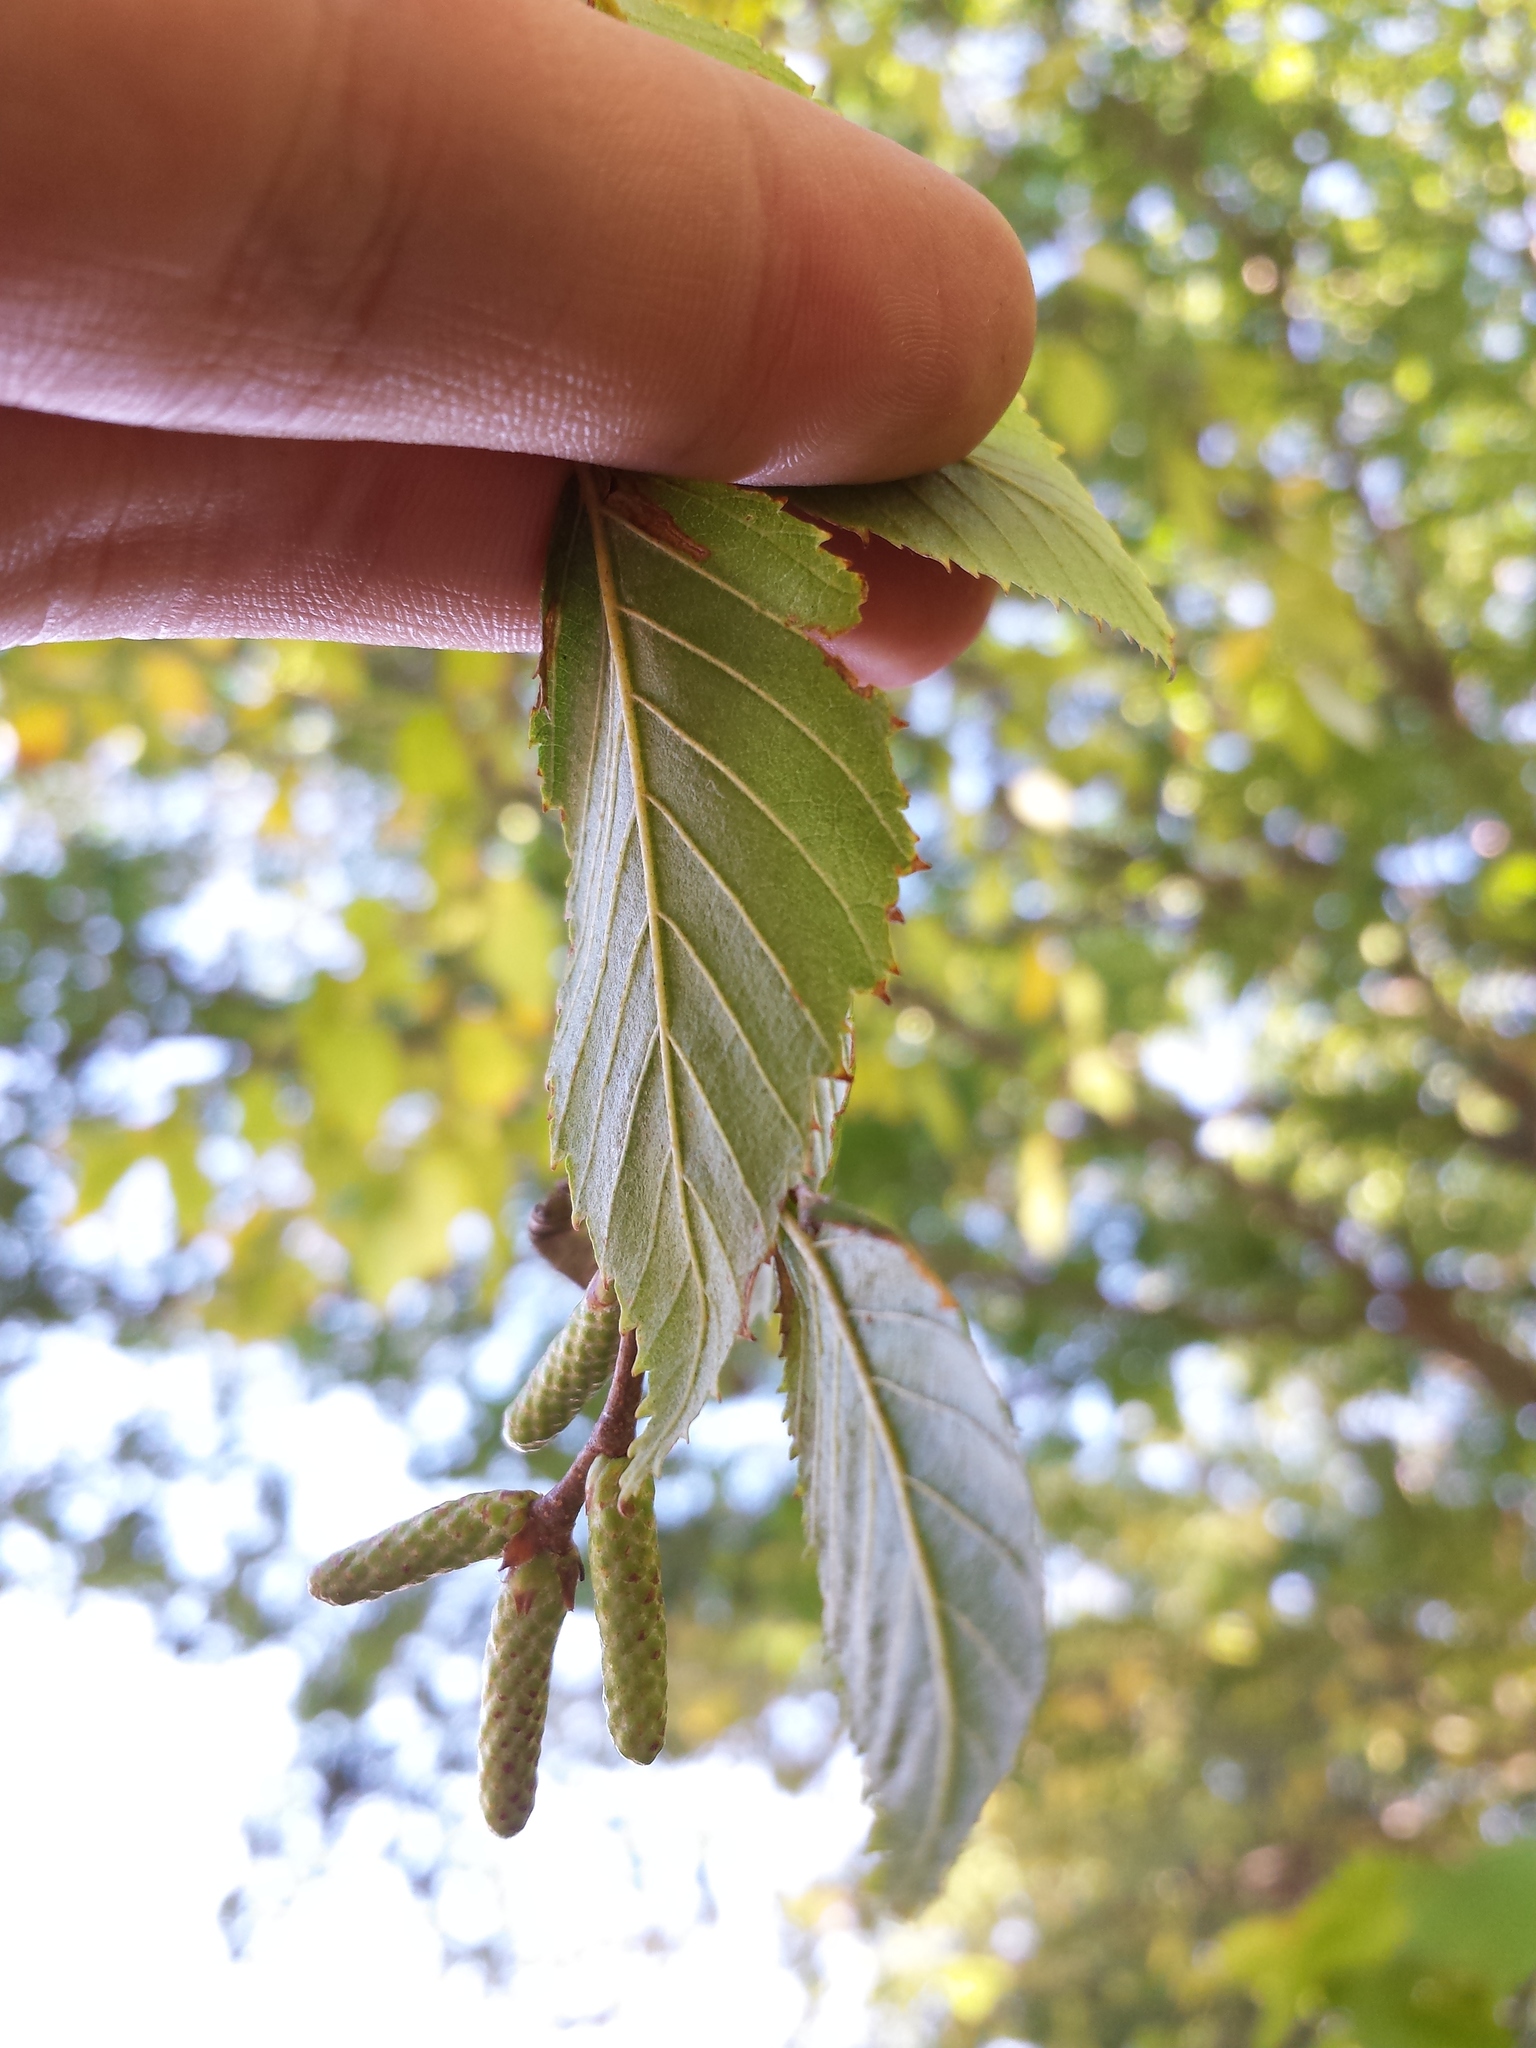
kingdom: Plantae
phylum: Tracheophyta
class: Magnoliopsida
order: Fagales
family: Betulaceae
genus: Betula
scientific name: Betula lenta
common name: Black birch
